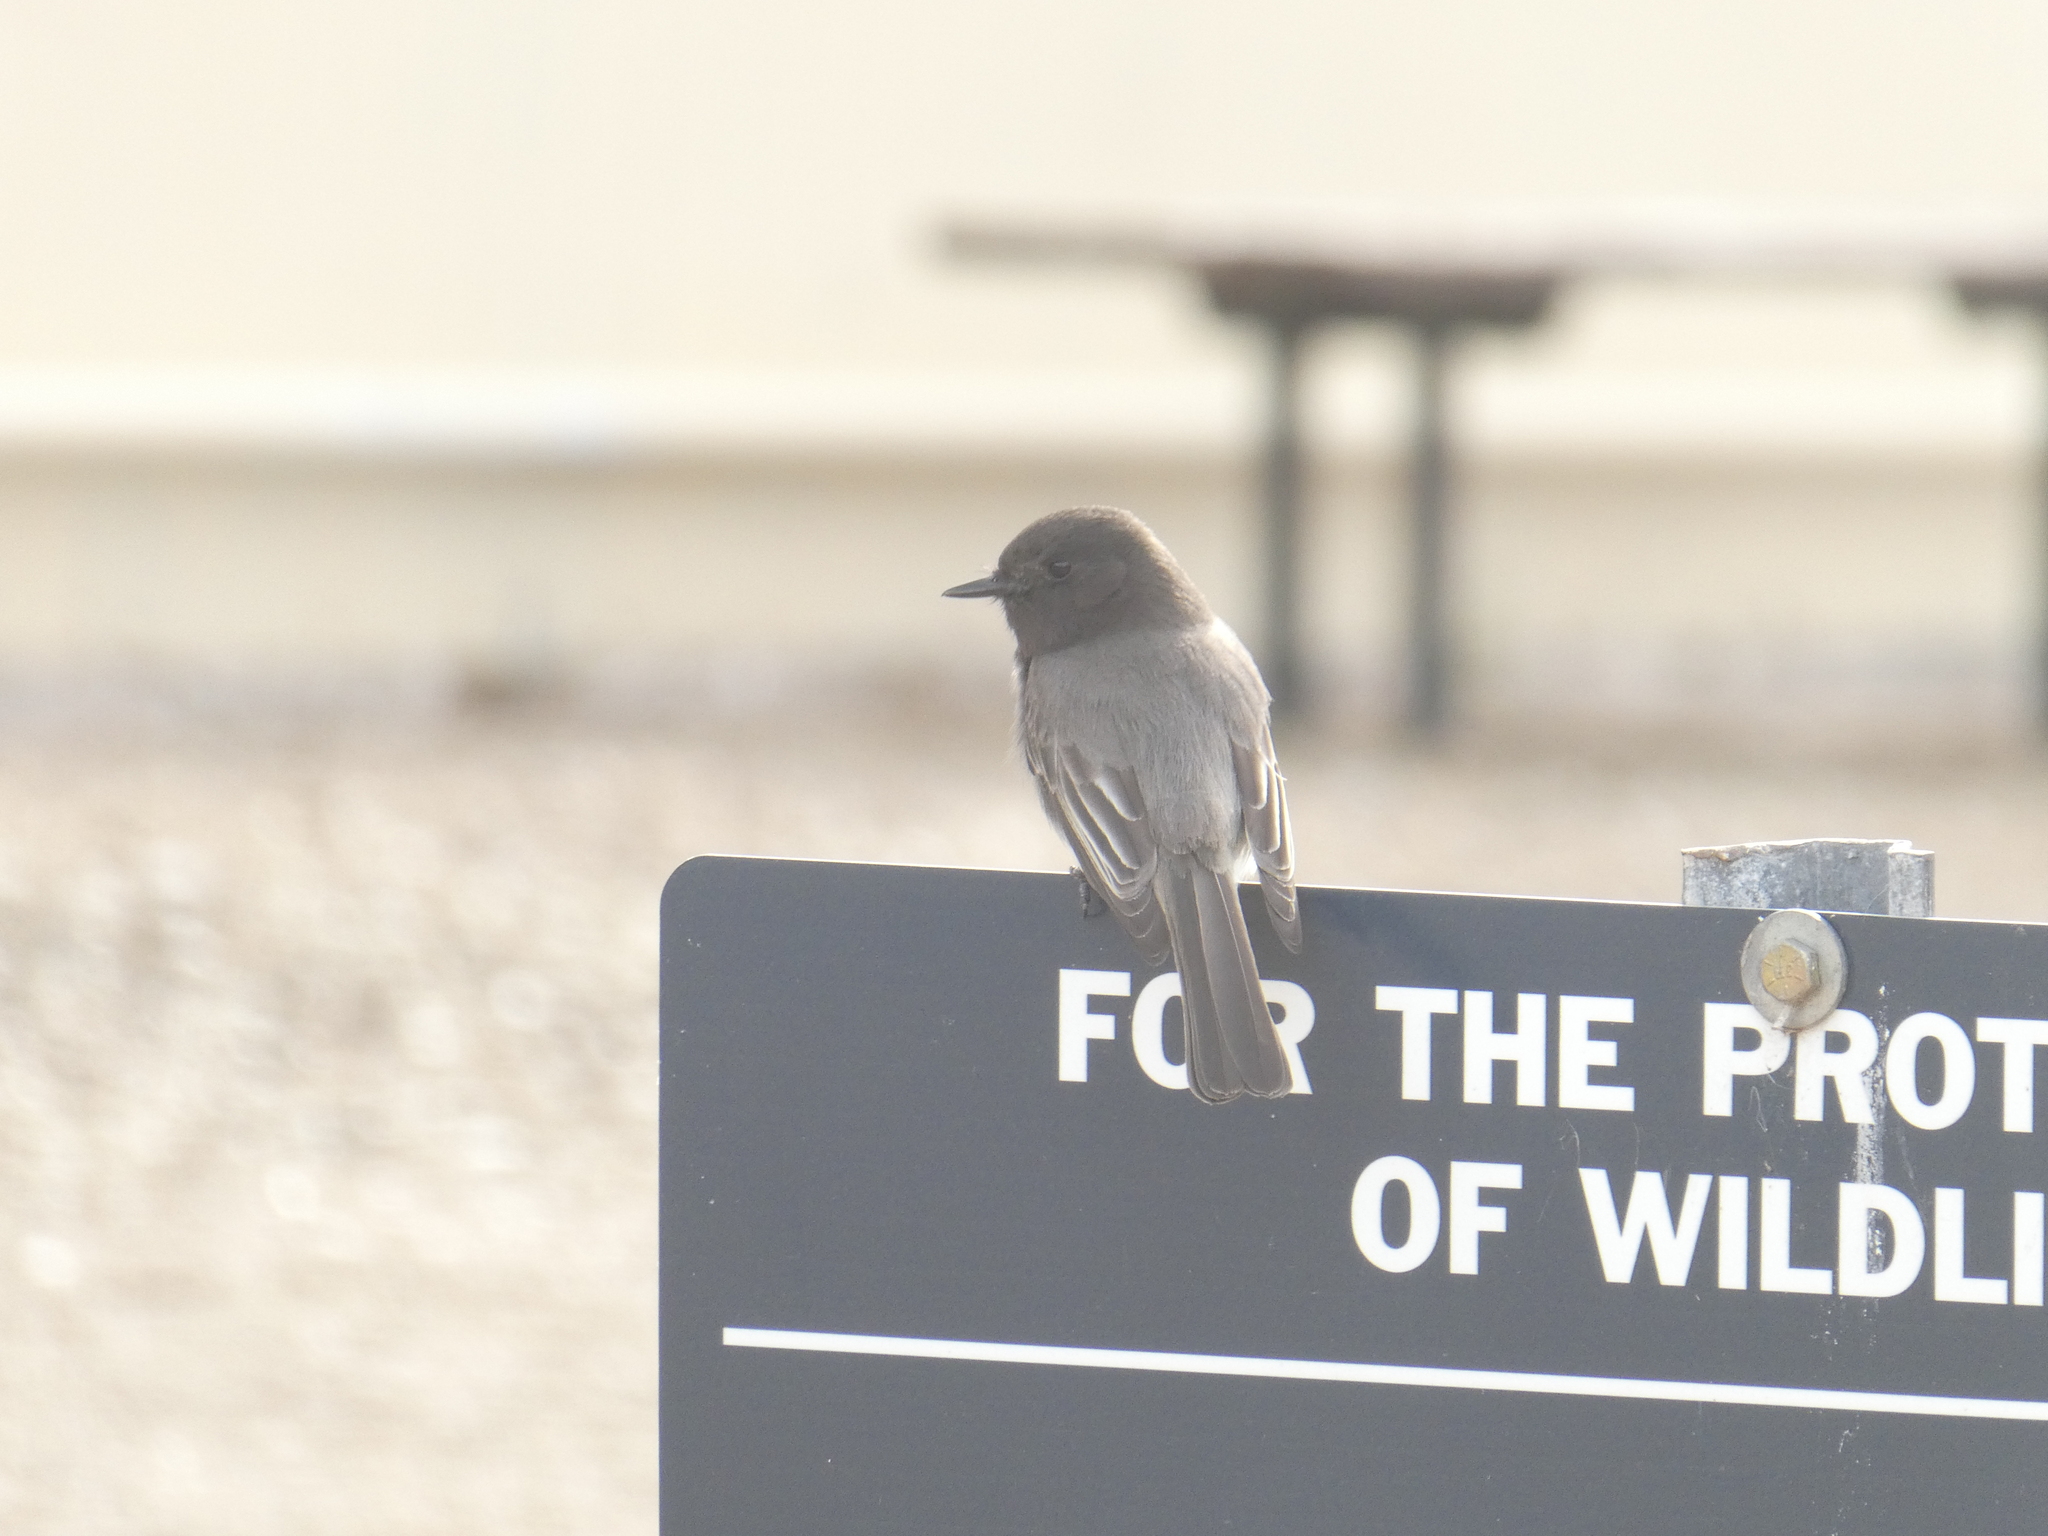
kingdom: Animalia
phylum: Chordata
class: Aves
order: Passeriformes
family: Tyrannidae
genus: Sayornis
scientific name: Sayornis nigricans
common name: Black phoebe
